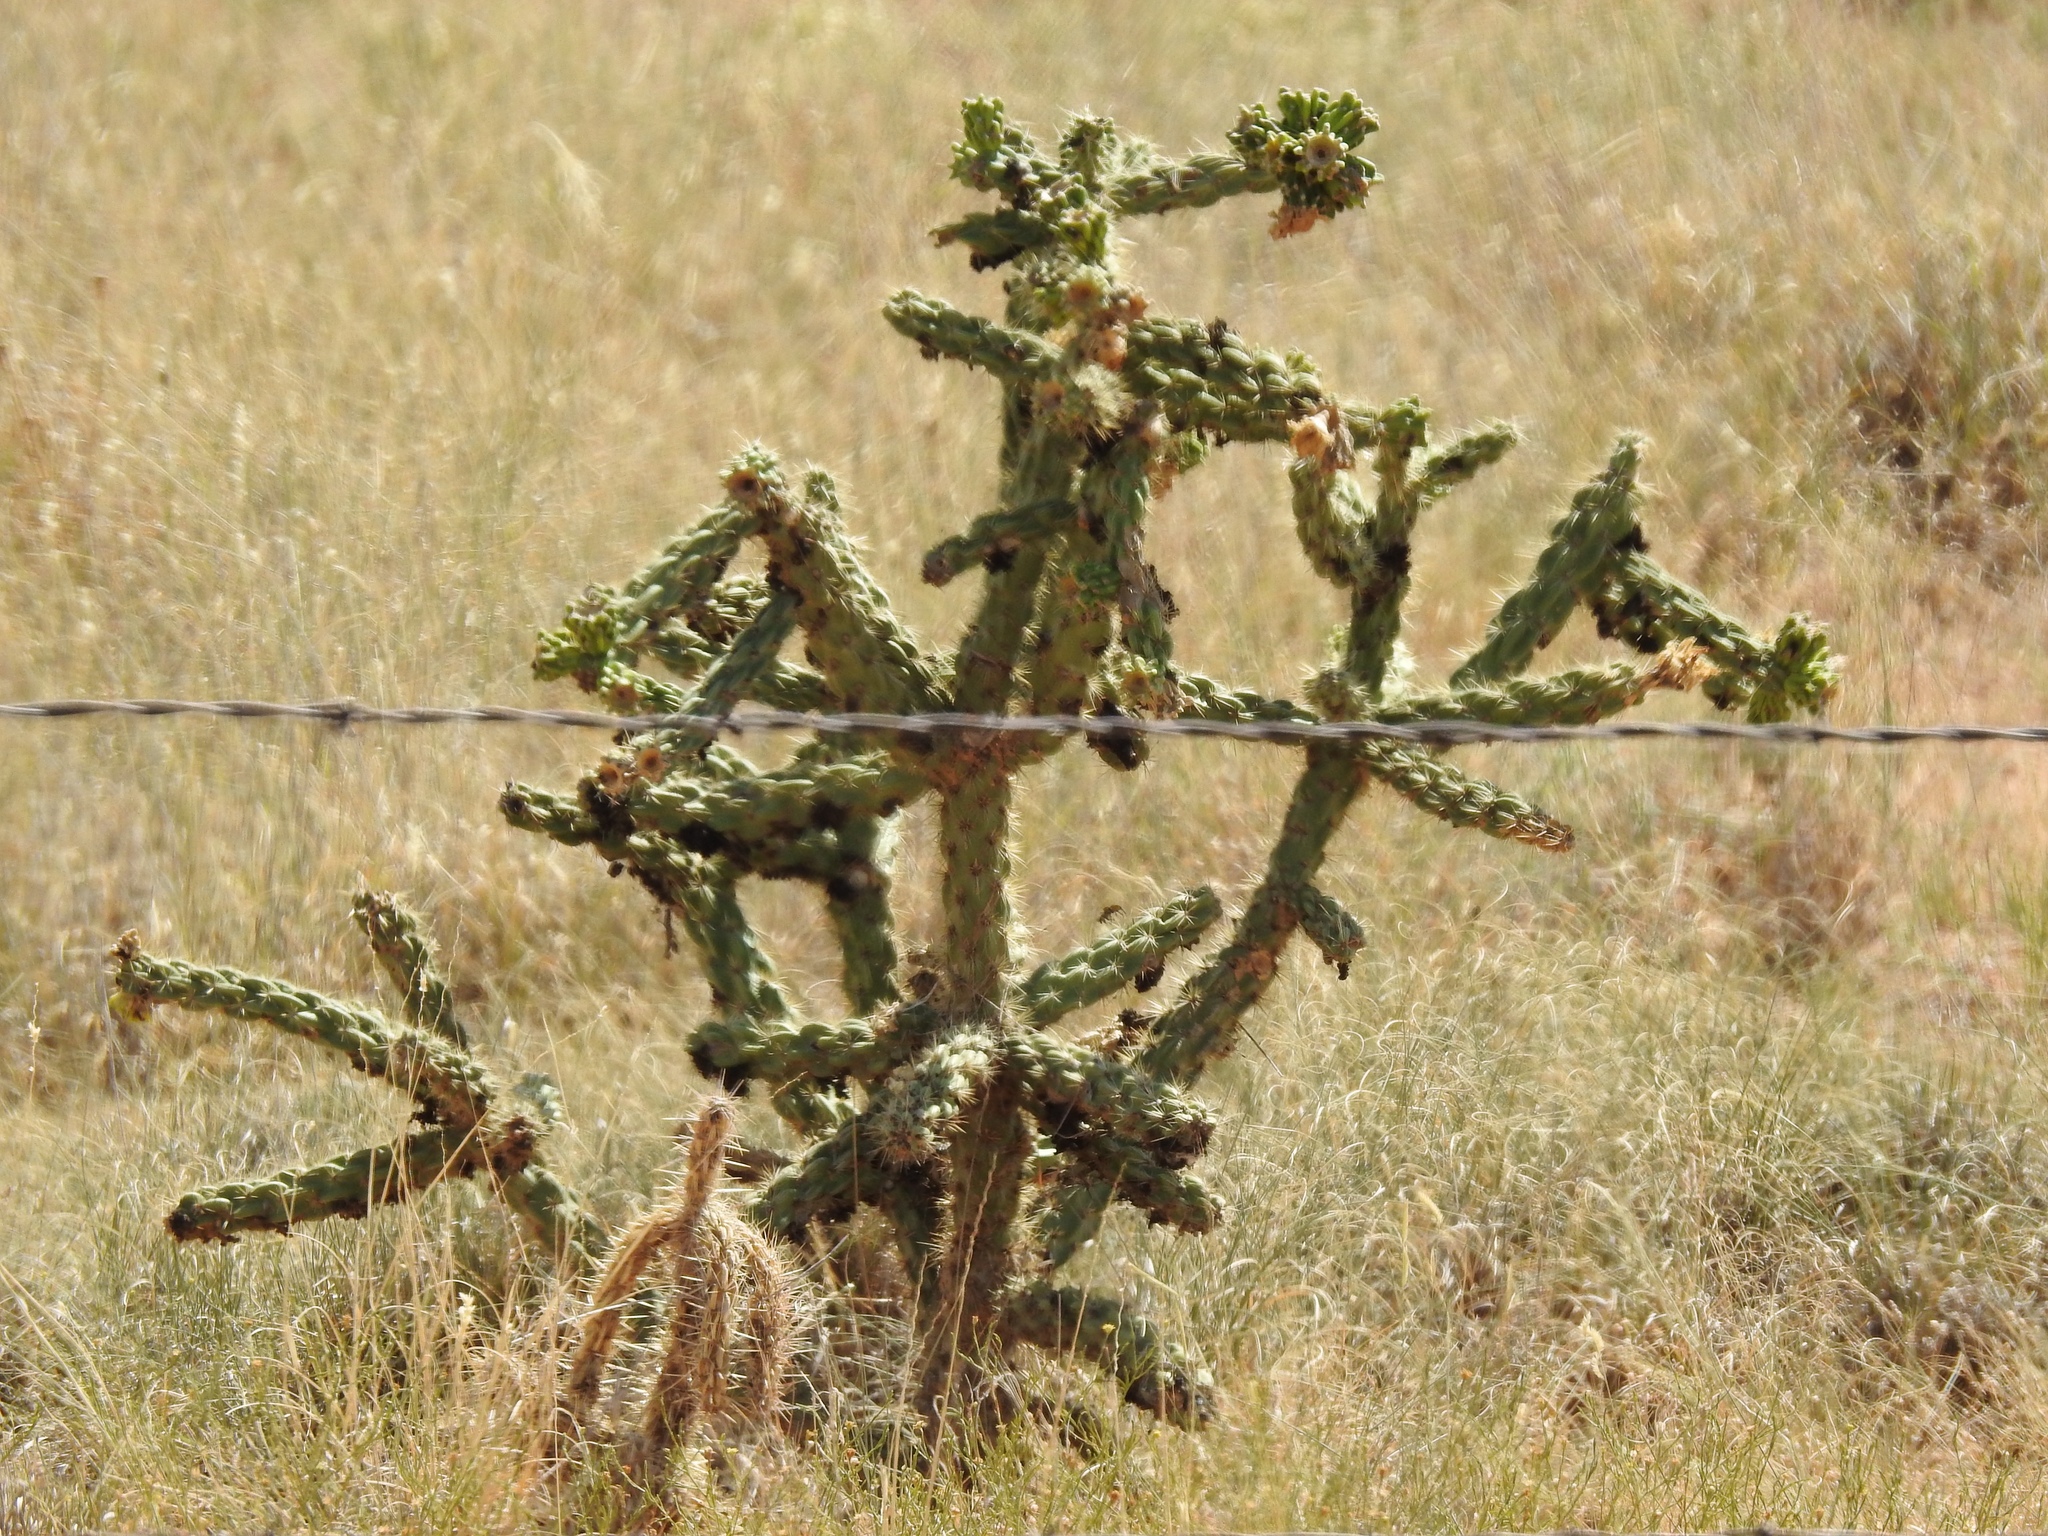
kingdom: Plantae
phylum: Tracheophyta
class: Magnoliopsida
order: Caryophyllales
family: Cactaceae
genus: Cylindropuntia
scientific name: Cylindropuntia imbricata
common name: Candelabrum cactus
